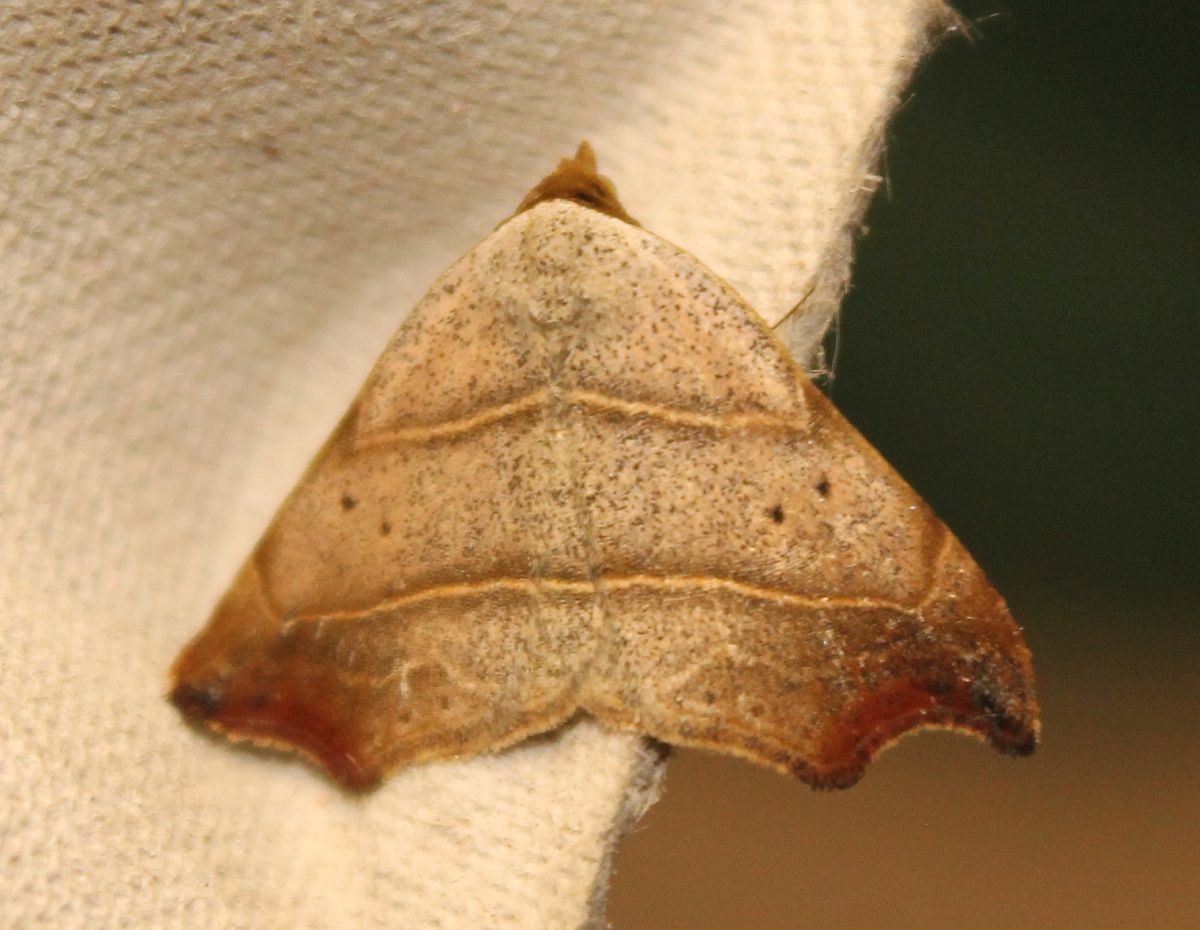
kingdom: Animalia
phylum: Arthropoda
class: Insecta
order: Lepidoptera
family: Erebidae
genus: Laspeyria
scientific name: Laspeyria flexula
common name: Beautiful hook-tip
